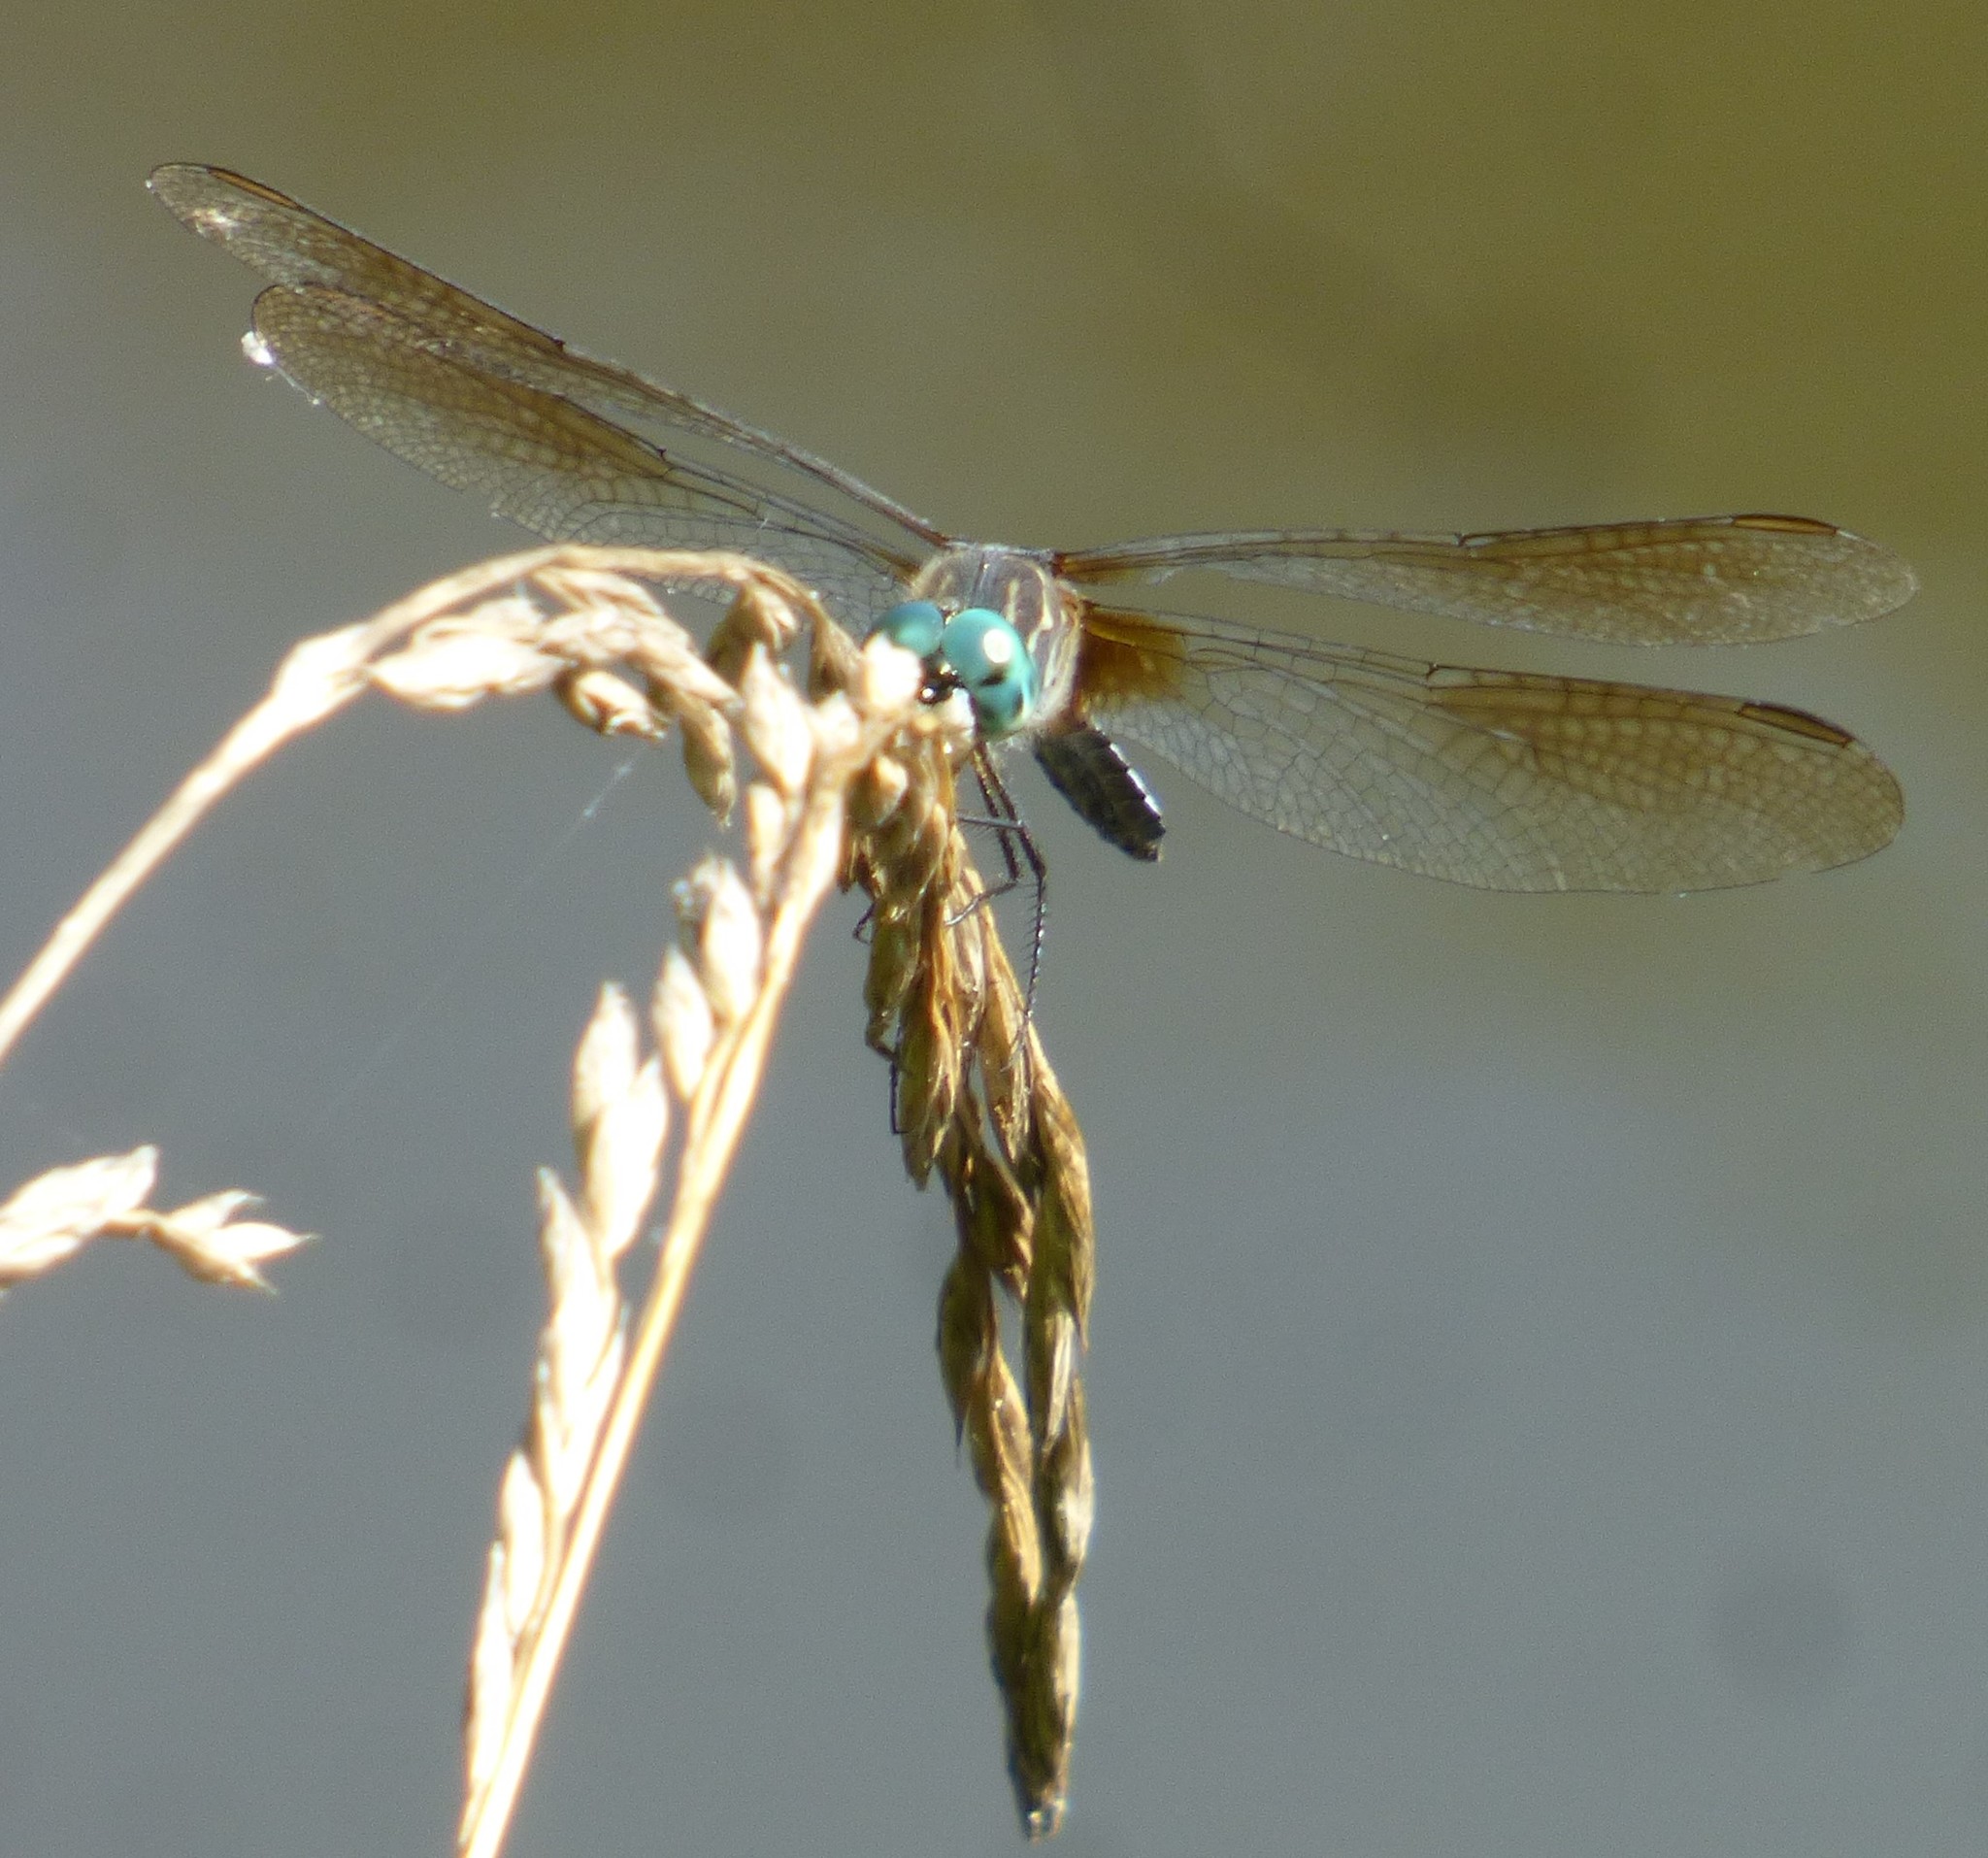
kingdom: Animalia
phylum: Arthropoda
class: Insecta
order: Odonata
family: Libellulidae
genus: Pachydiplax
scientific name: Pachydiplax longipennis
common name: Blue dasher
